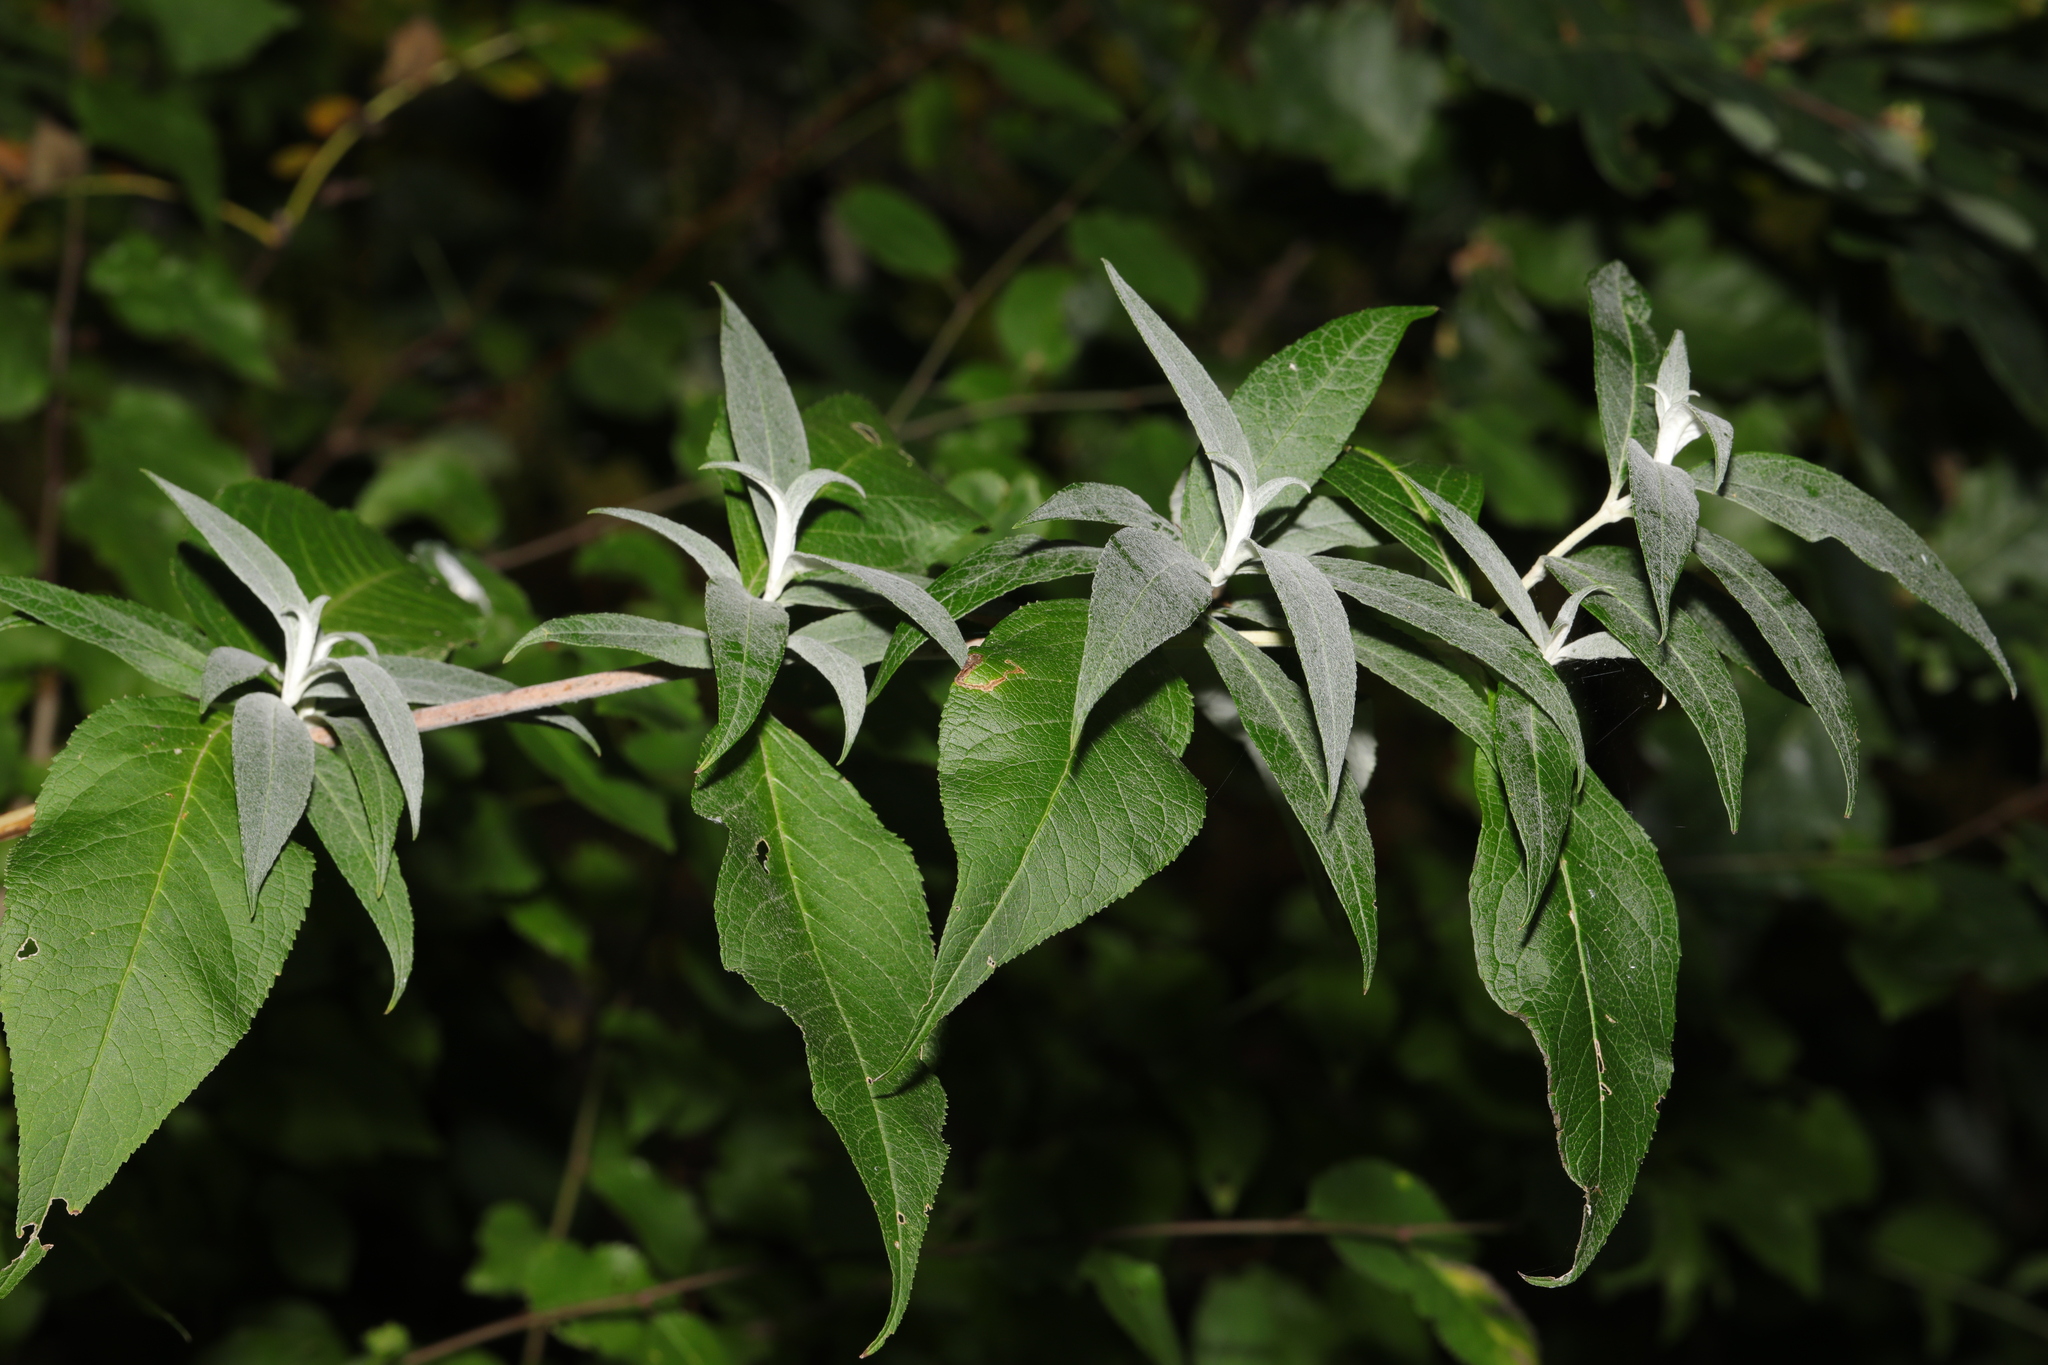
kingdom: Plantae
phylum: Tracheophyta
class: Magnoliopsida
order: Lamiales
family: Scrophulariaceae
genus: Buddleja
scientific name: Buddleja davidii
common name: Butterfly-bush
